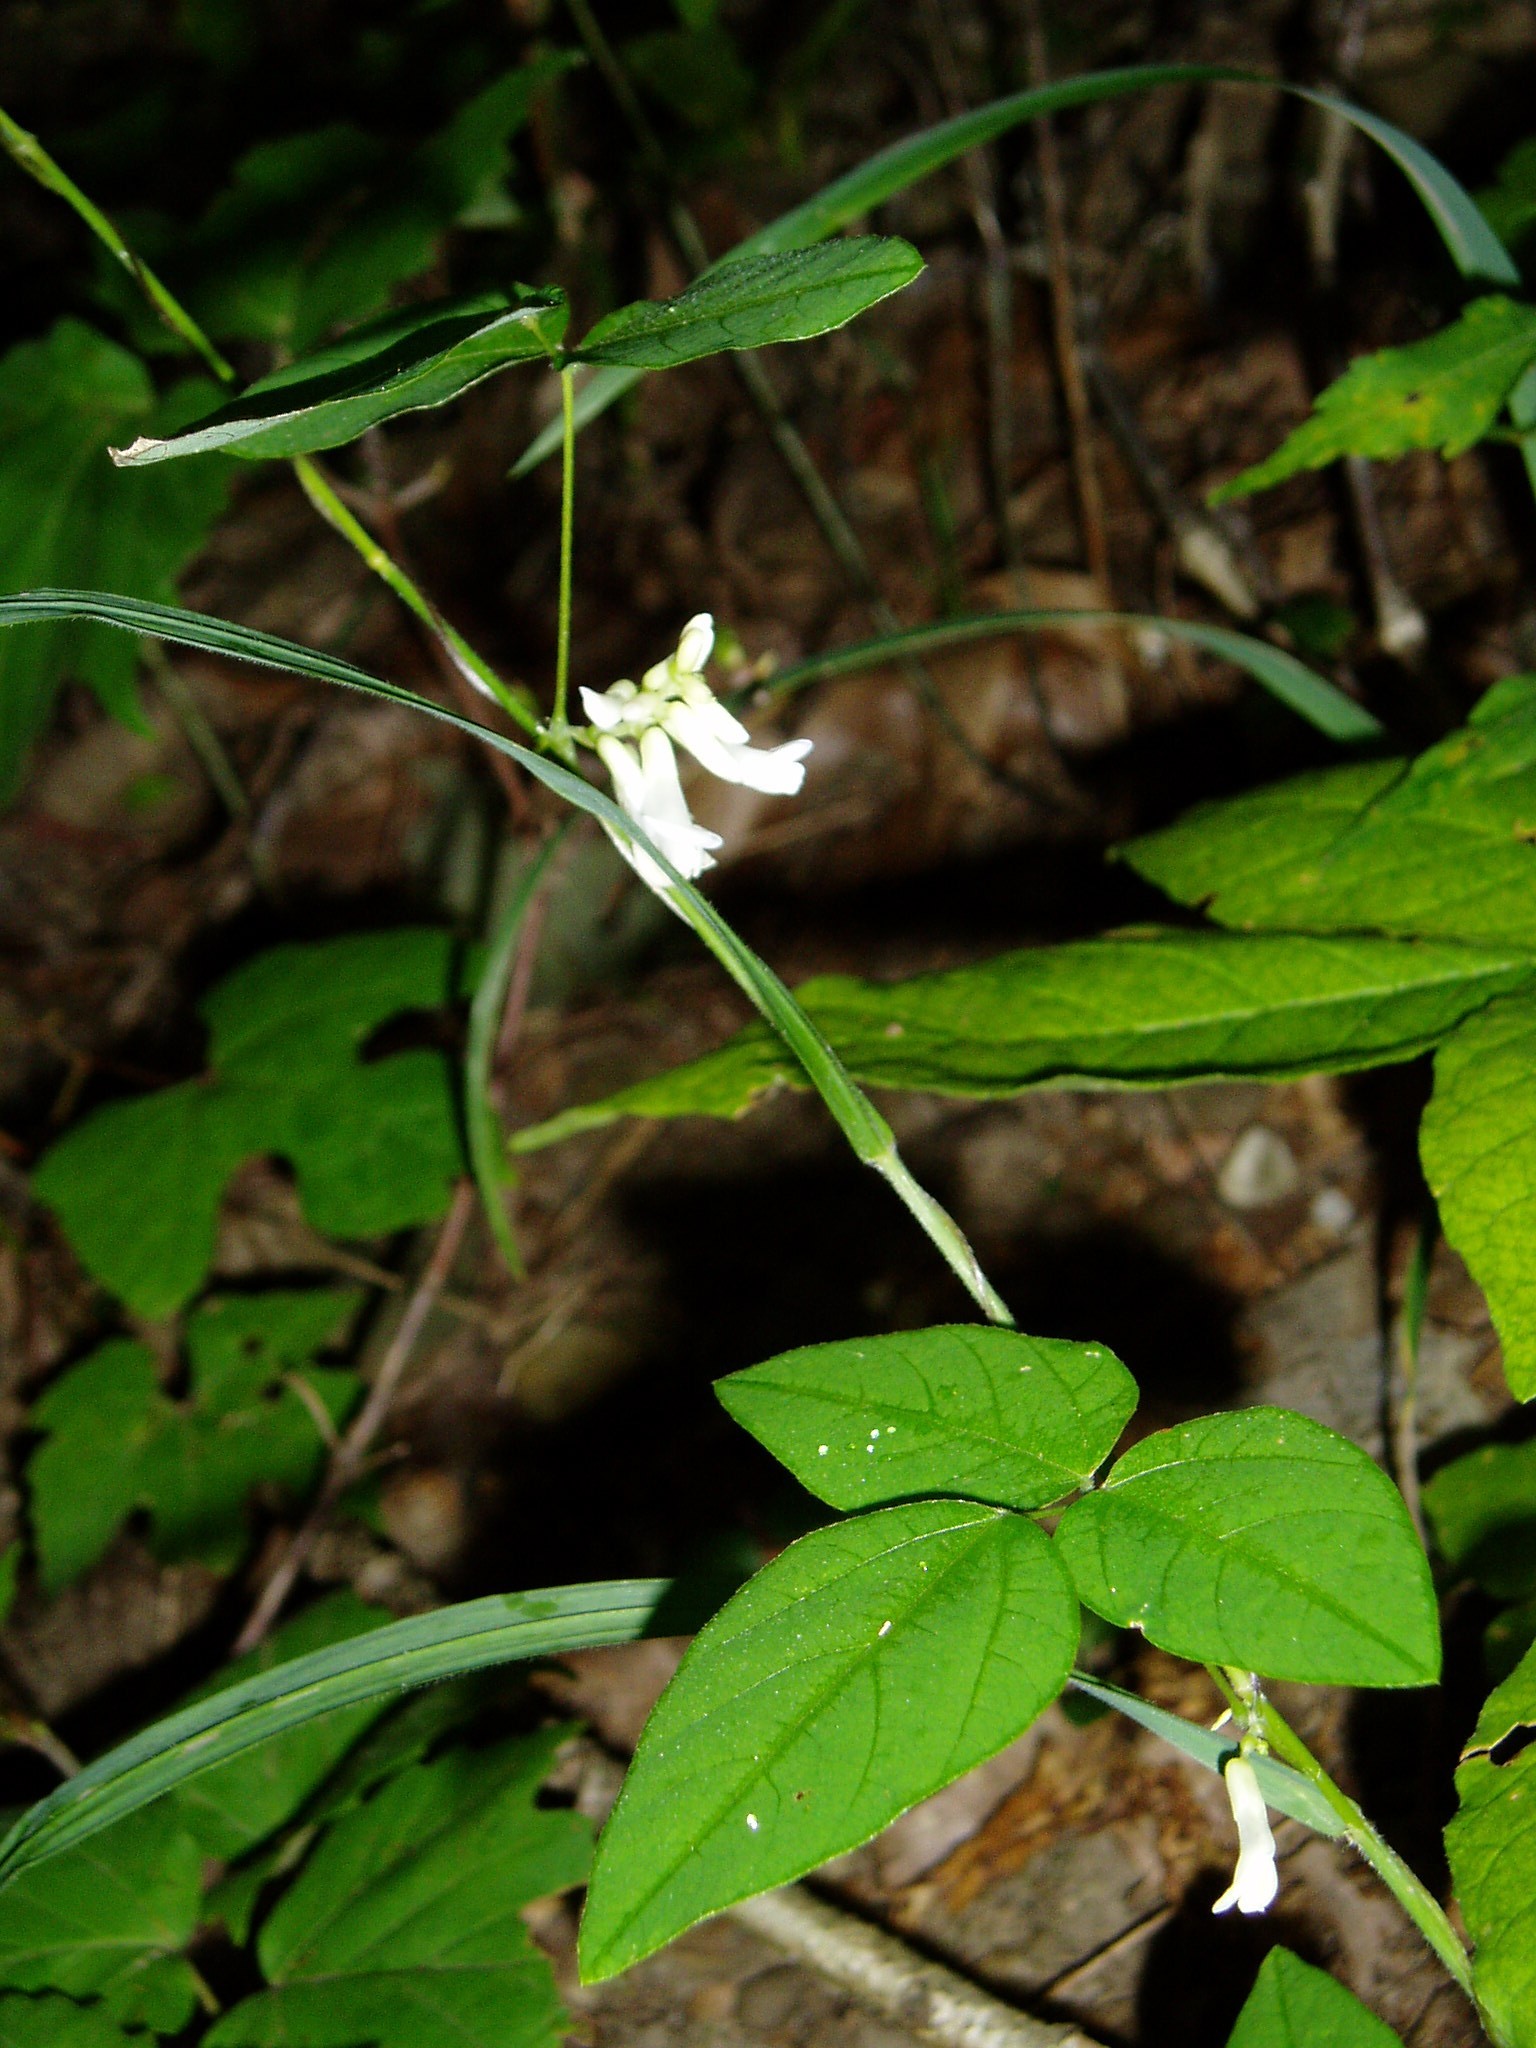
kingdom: Plantae
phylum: Tracheophyta
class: Magnoliopsida
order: Fabales
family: Fabaceae
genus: Amphicarpaea
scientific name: Amphicarpaea bracteata
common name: American hog peanut
